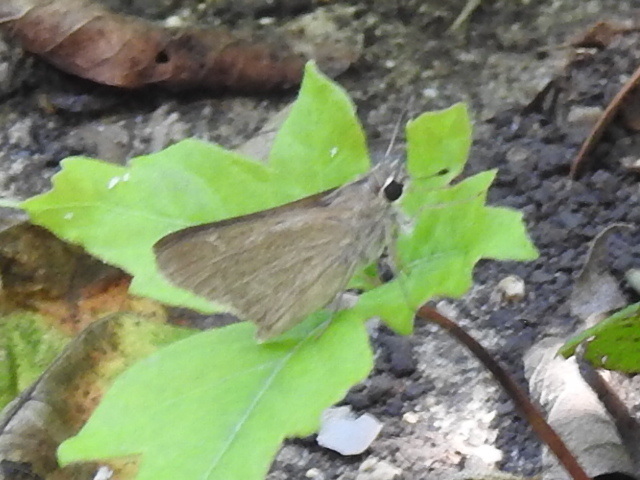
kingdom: Animalia
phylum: Arthropoda
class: Insecta
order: Lepidoptera
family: Hesperiidae
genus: Lerodea
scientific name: Lerodea eufala
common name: Eufala skipper
